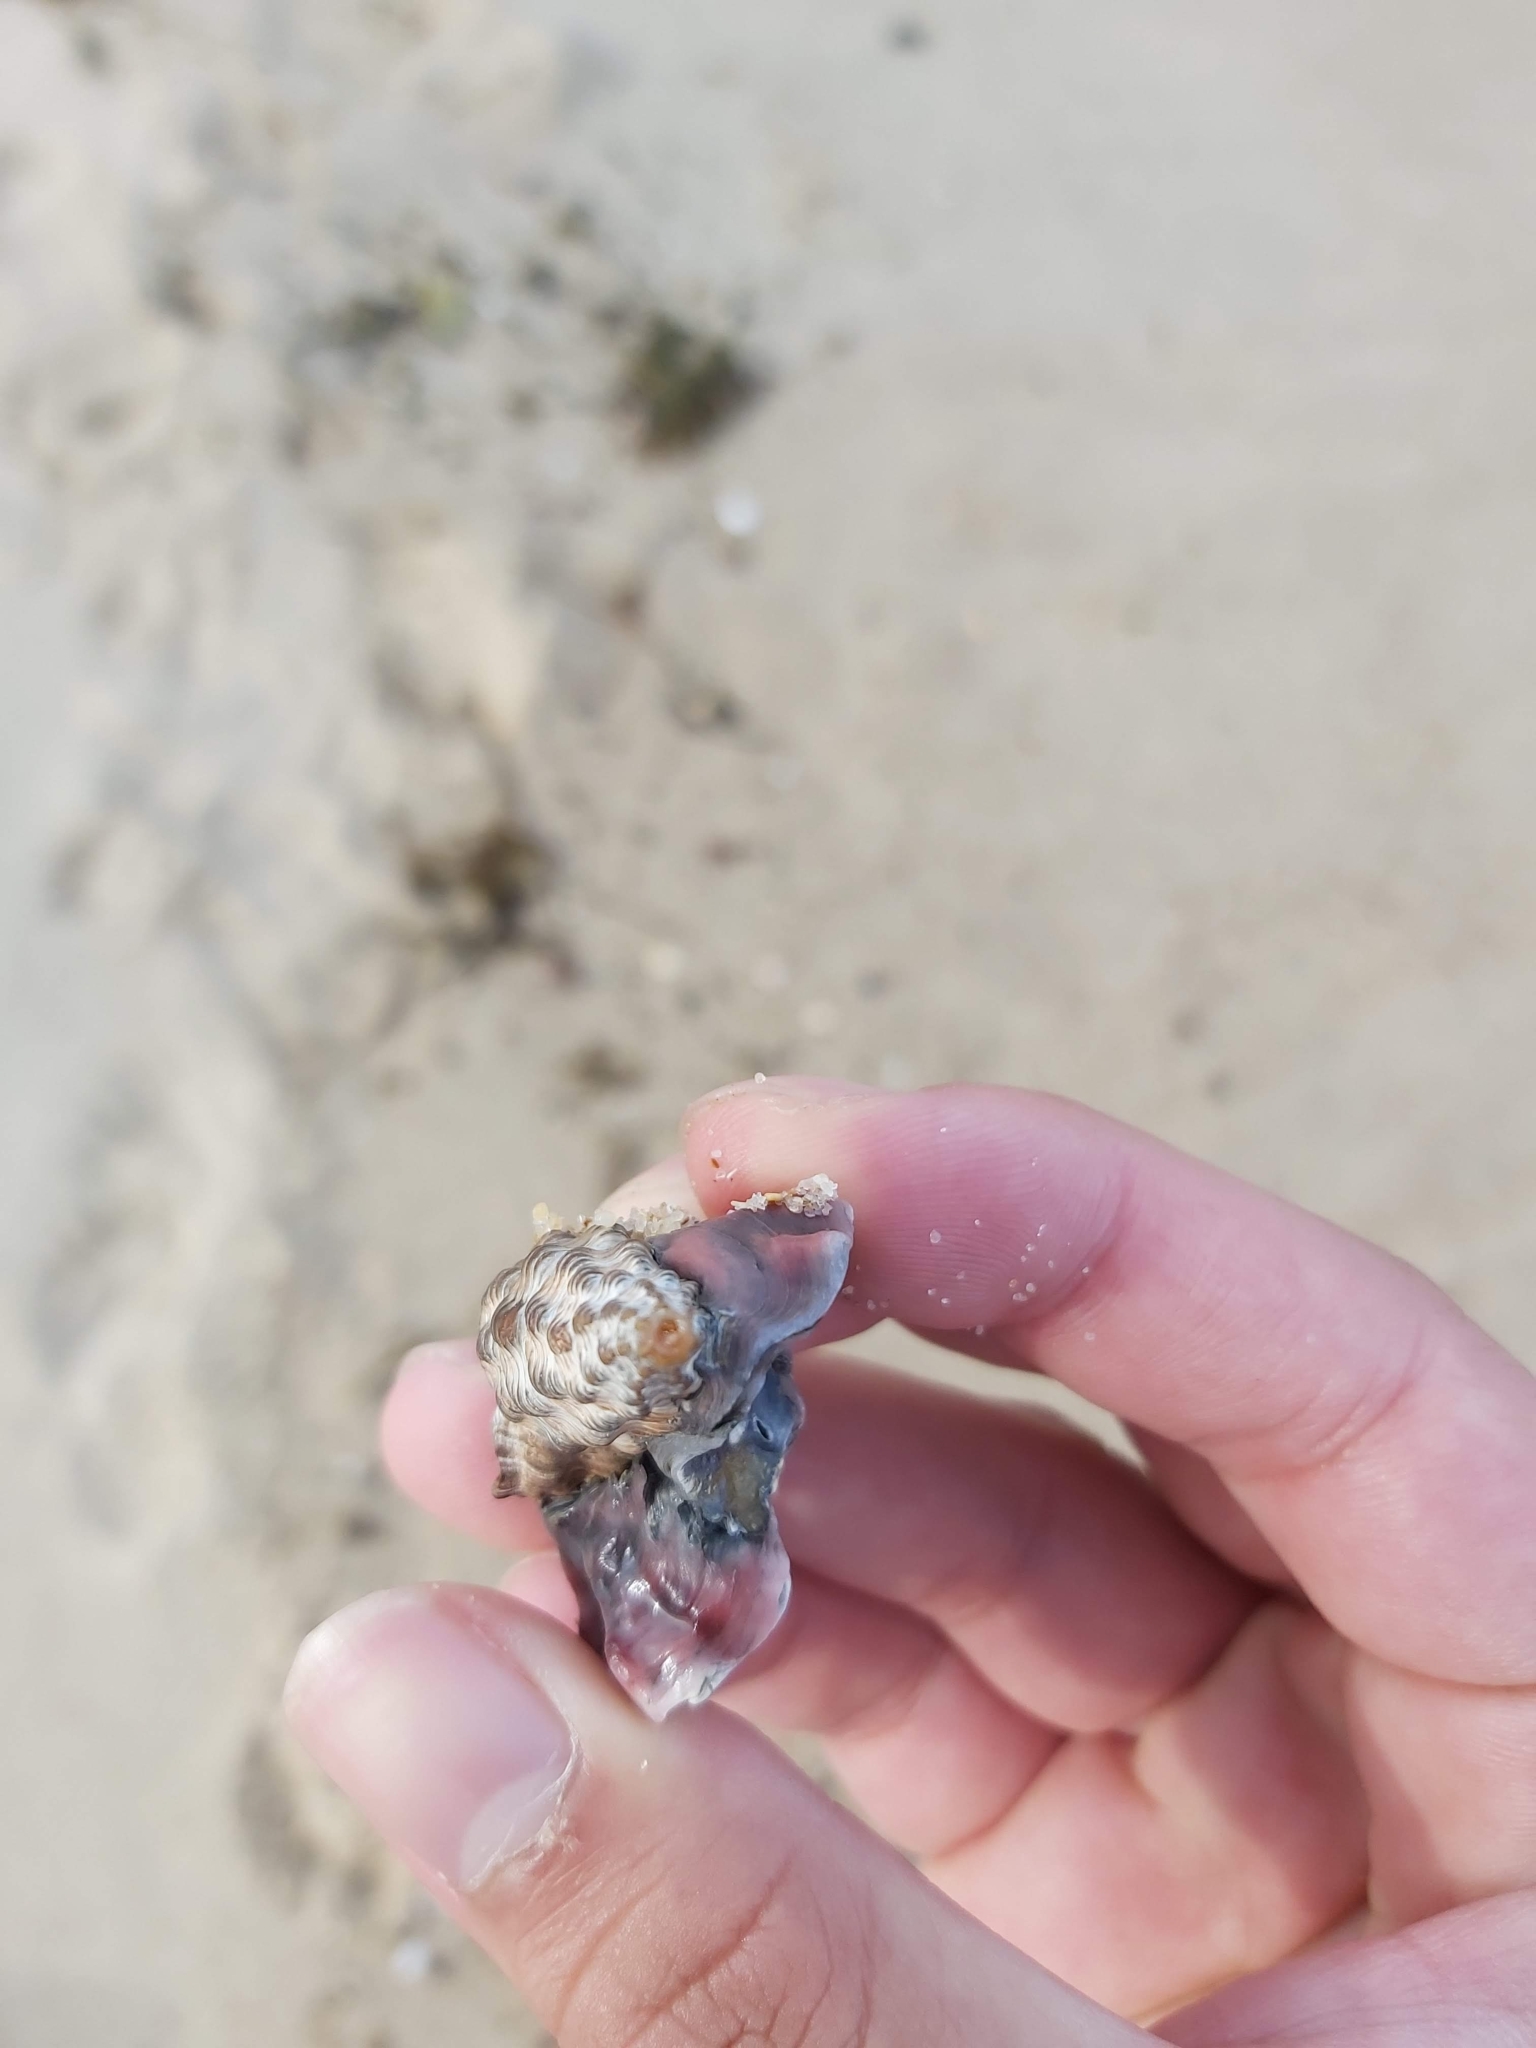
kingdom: Animalia
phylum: Mollusca
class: Gastropoda
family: Batillariidae
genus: Batillaria
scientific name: Batillaria australis
